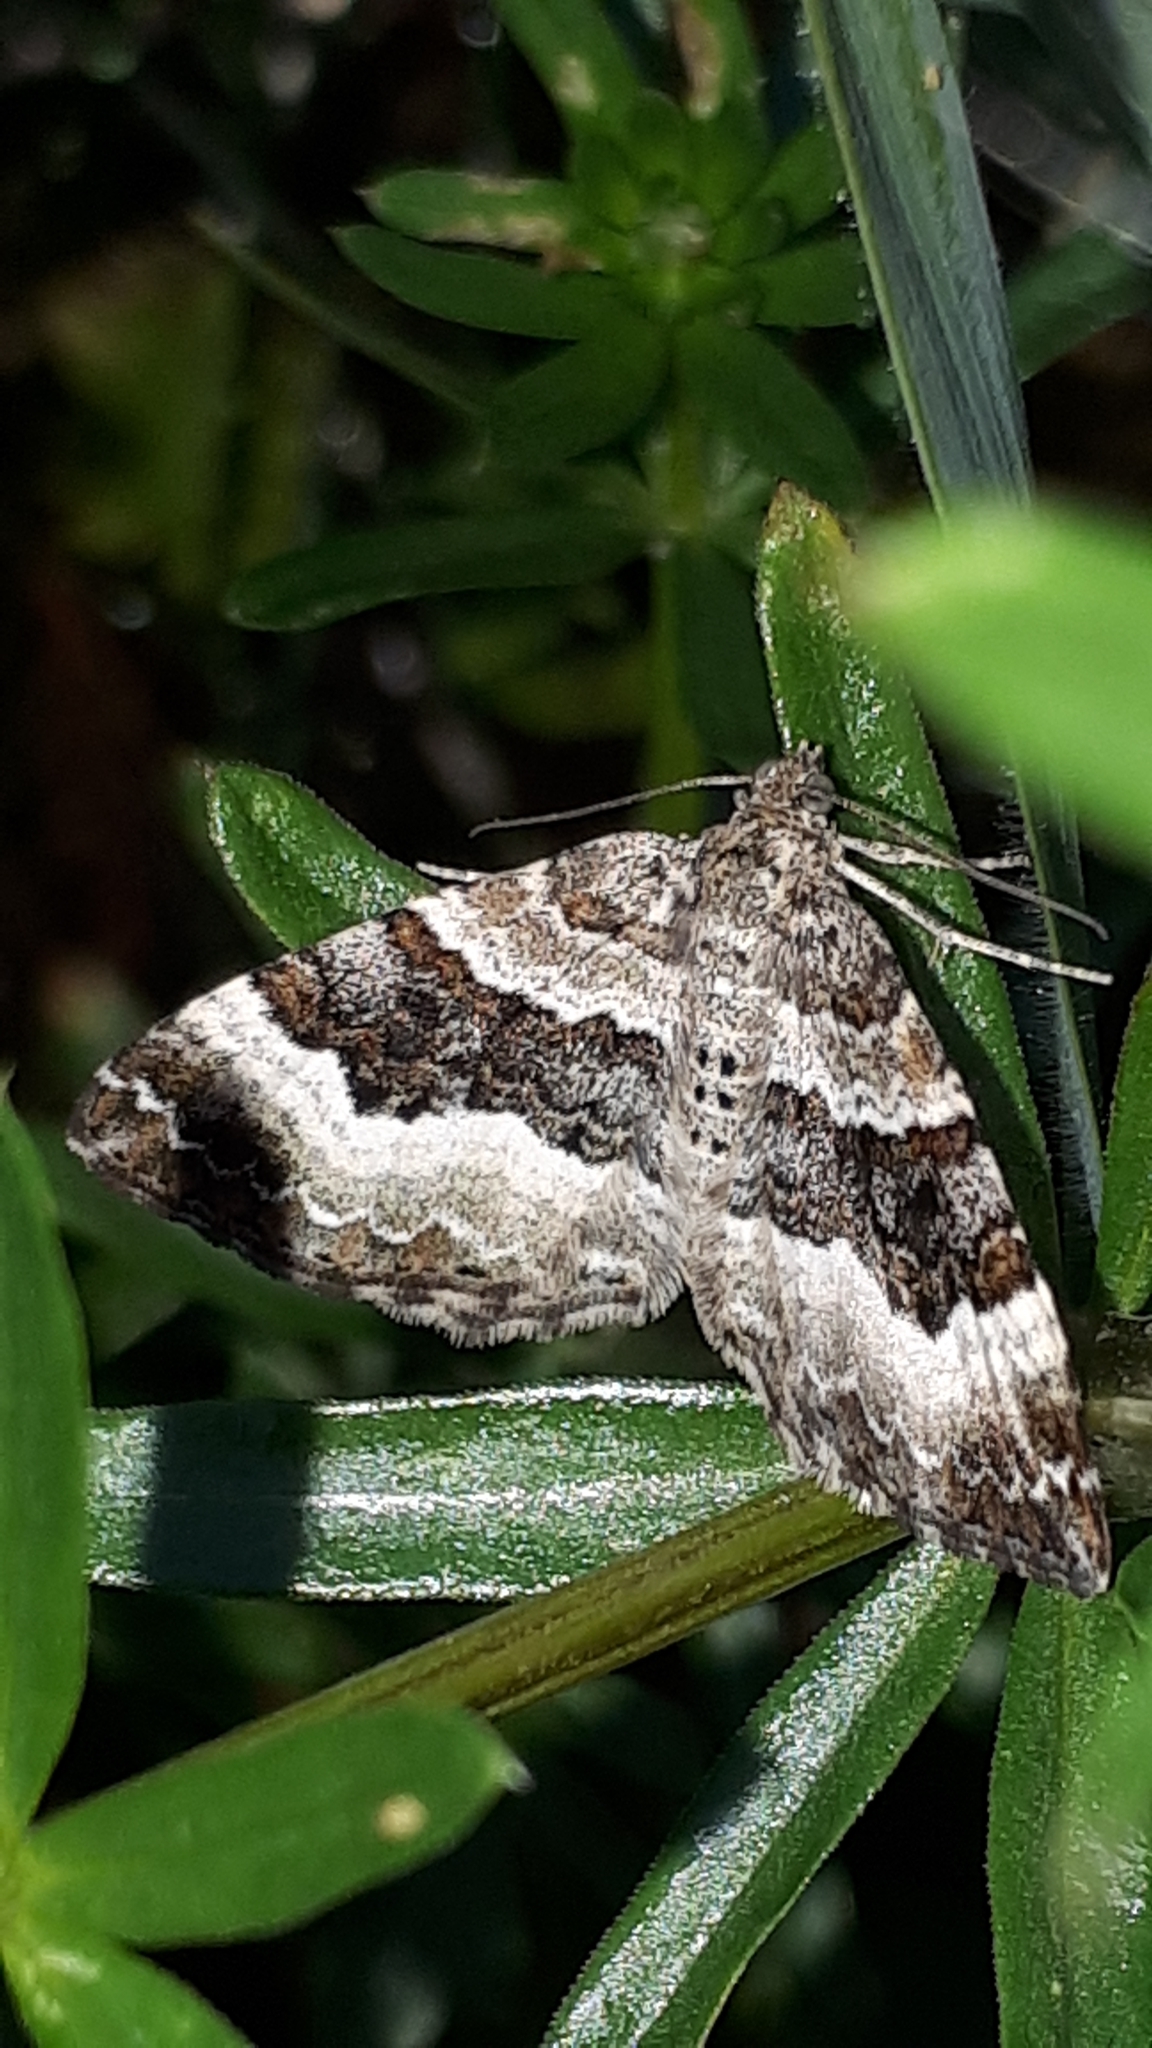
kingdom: Animalia
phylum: Arthropoda
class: Insecta
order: Lepidoptera
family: Geometridae
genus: Epirrhoe
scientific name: Epirrhoe alternata
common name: Common carpet
